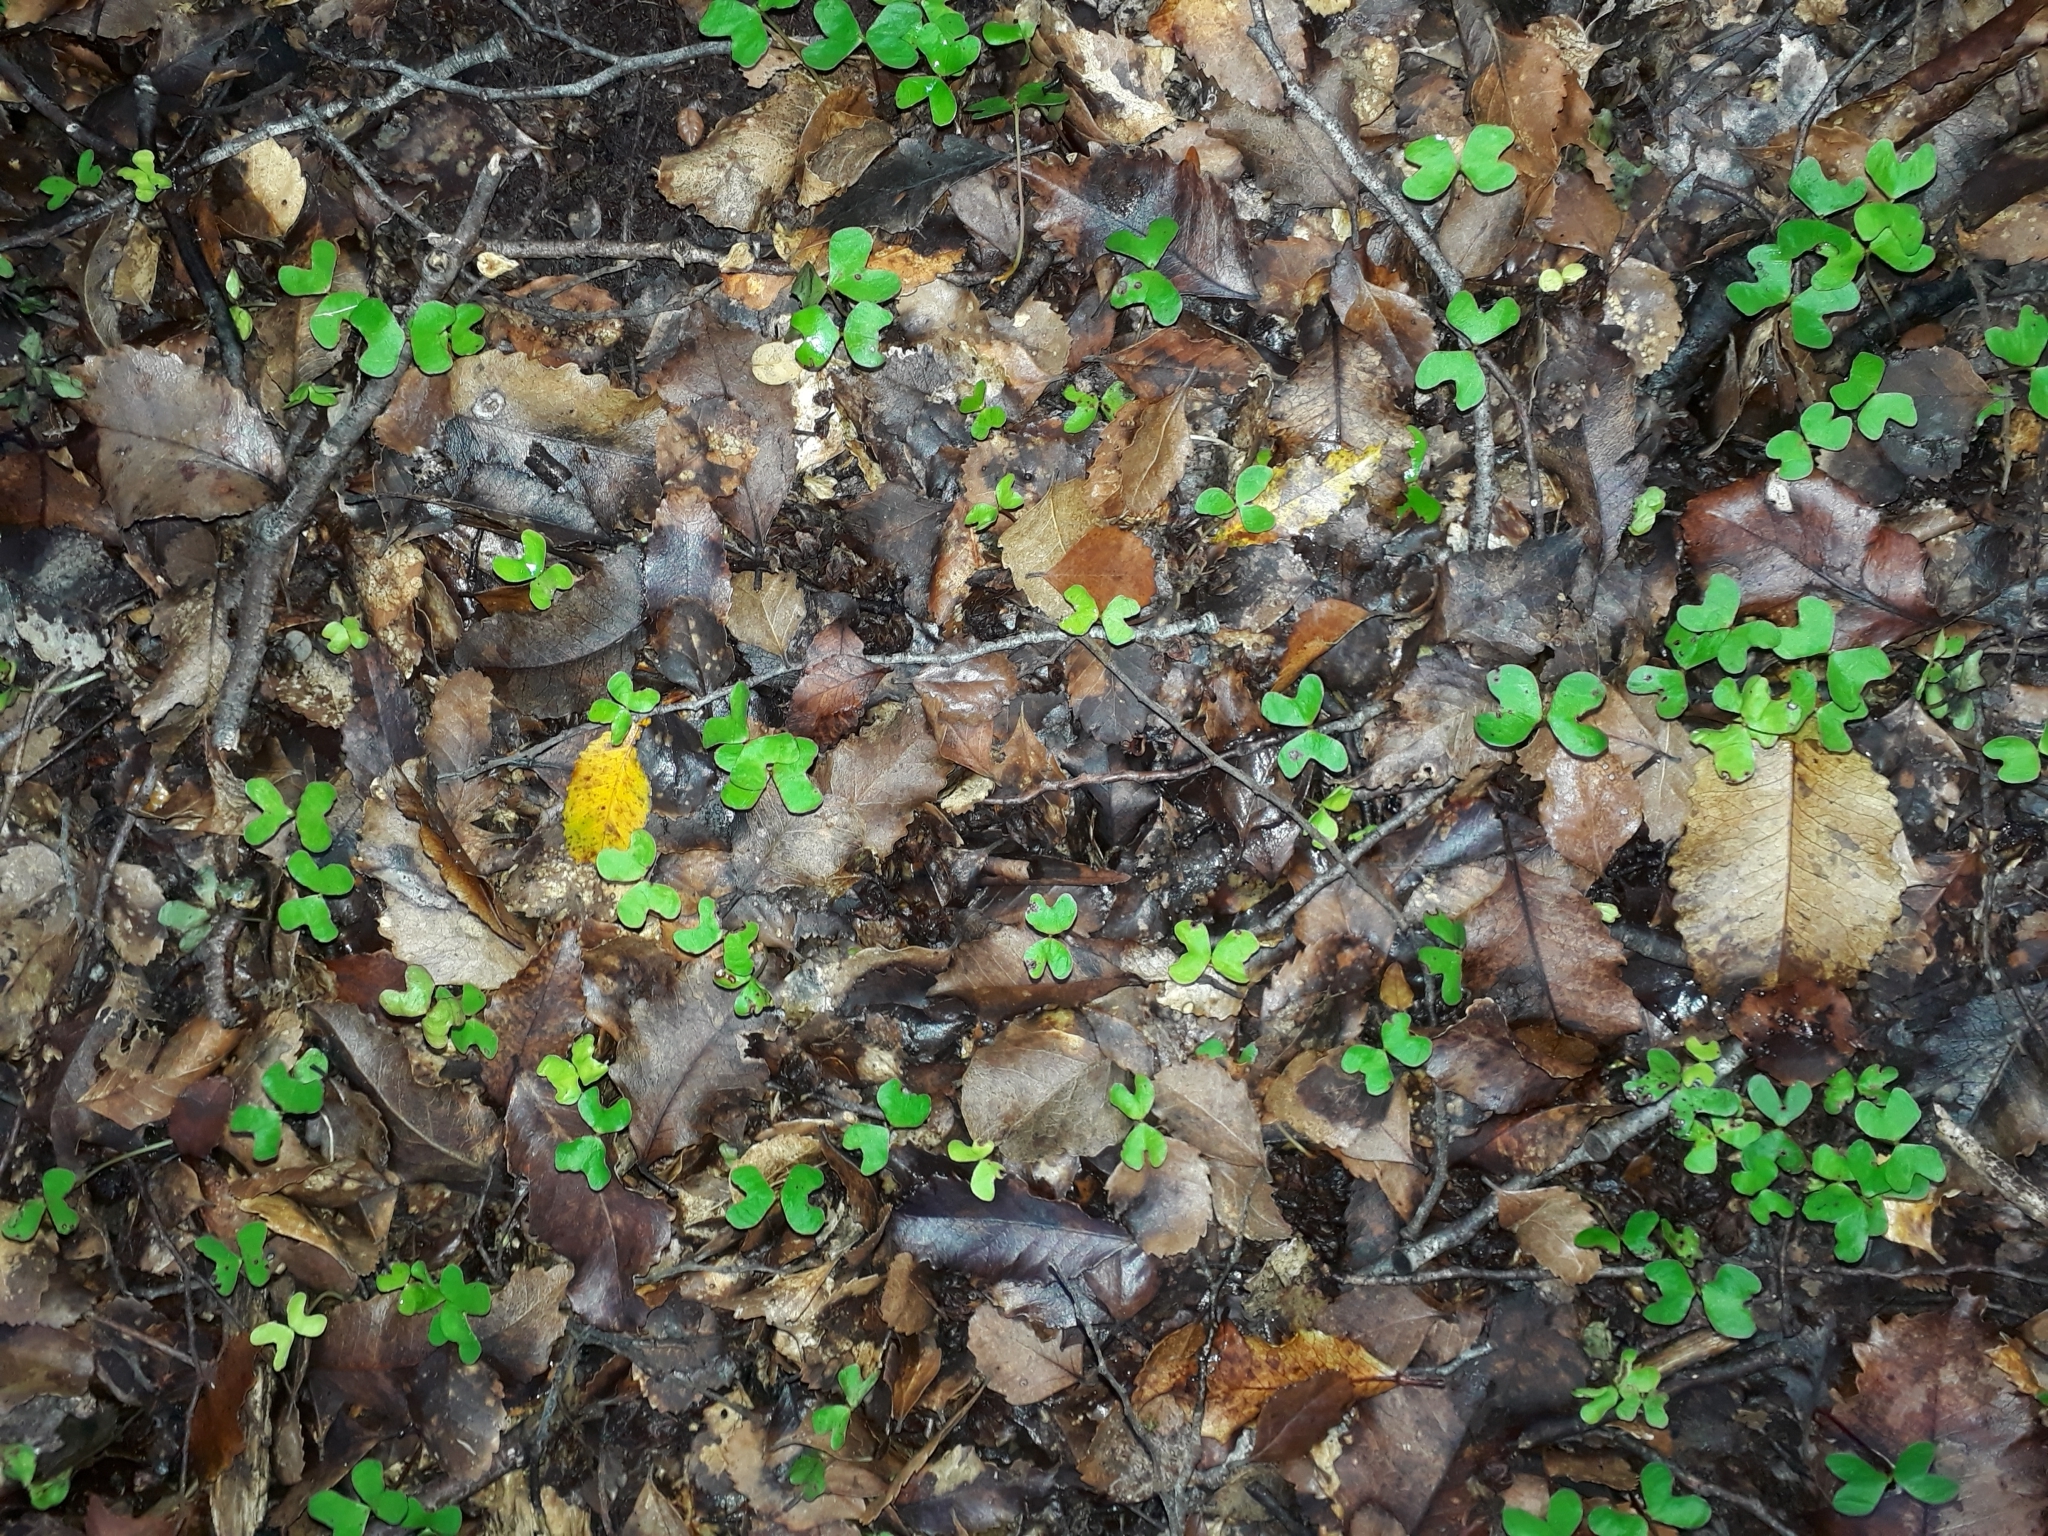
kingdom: Plantae
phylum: Tracheophyta
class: Magnoliopsida
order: Fagales
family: Nothofagaceae
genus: Nothofagus
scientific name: Nothofagus truncata
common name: Hard beech
